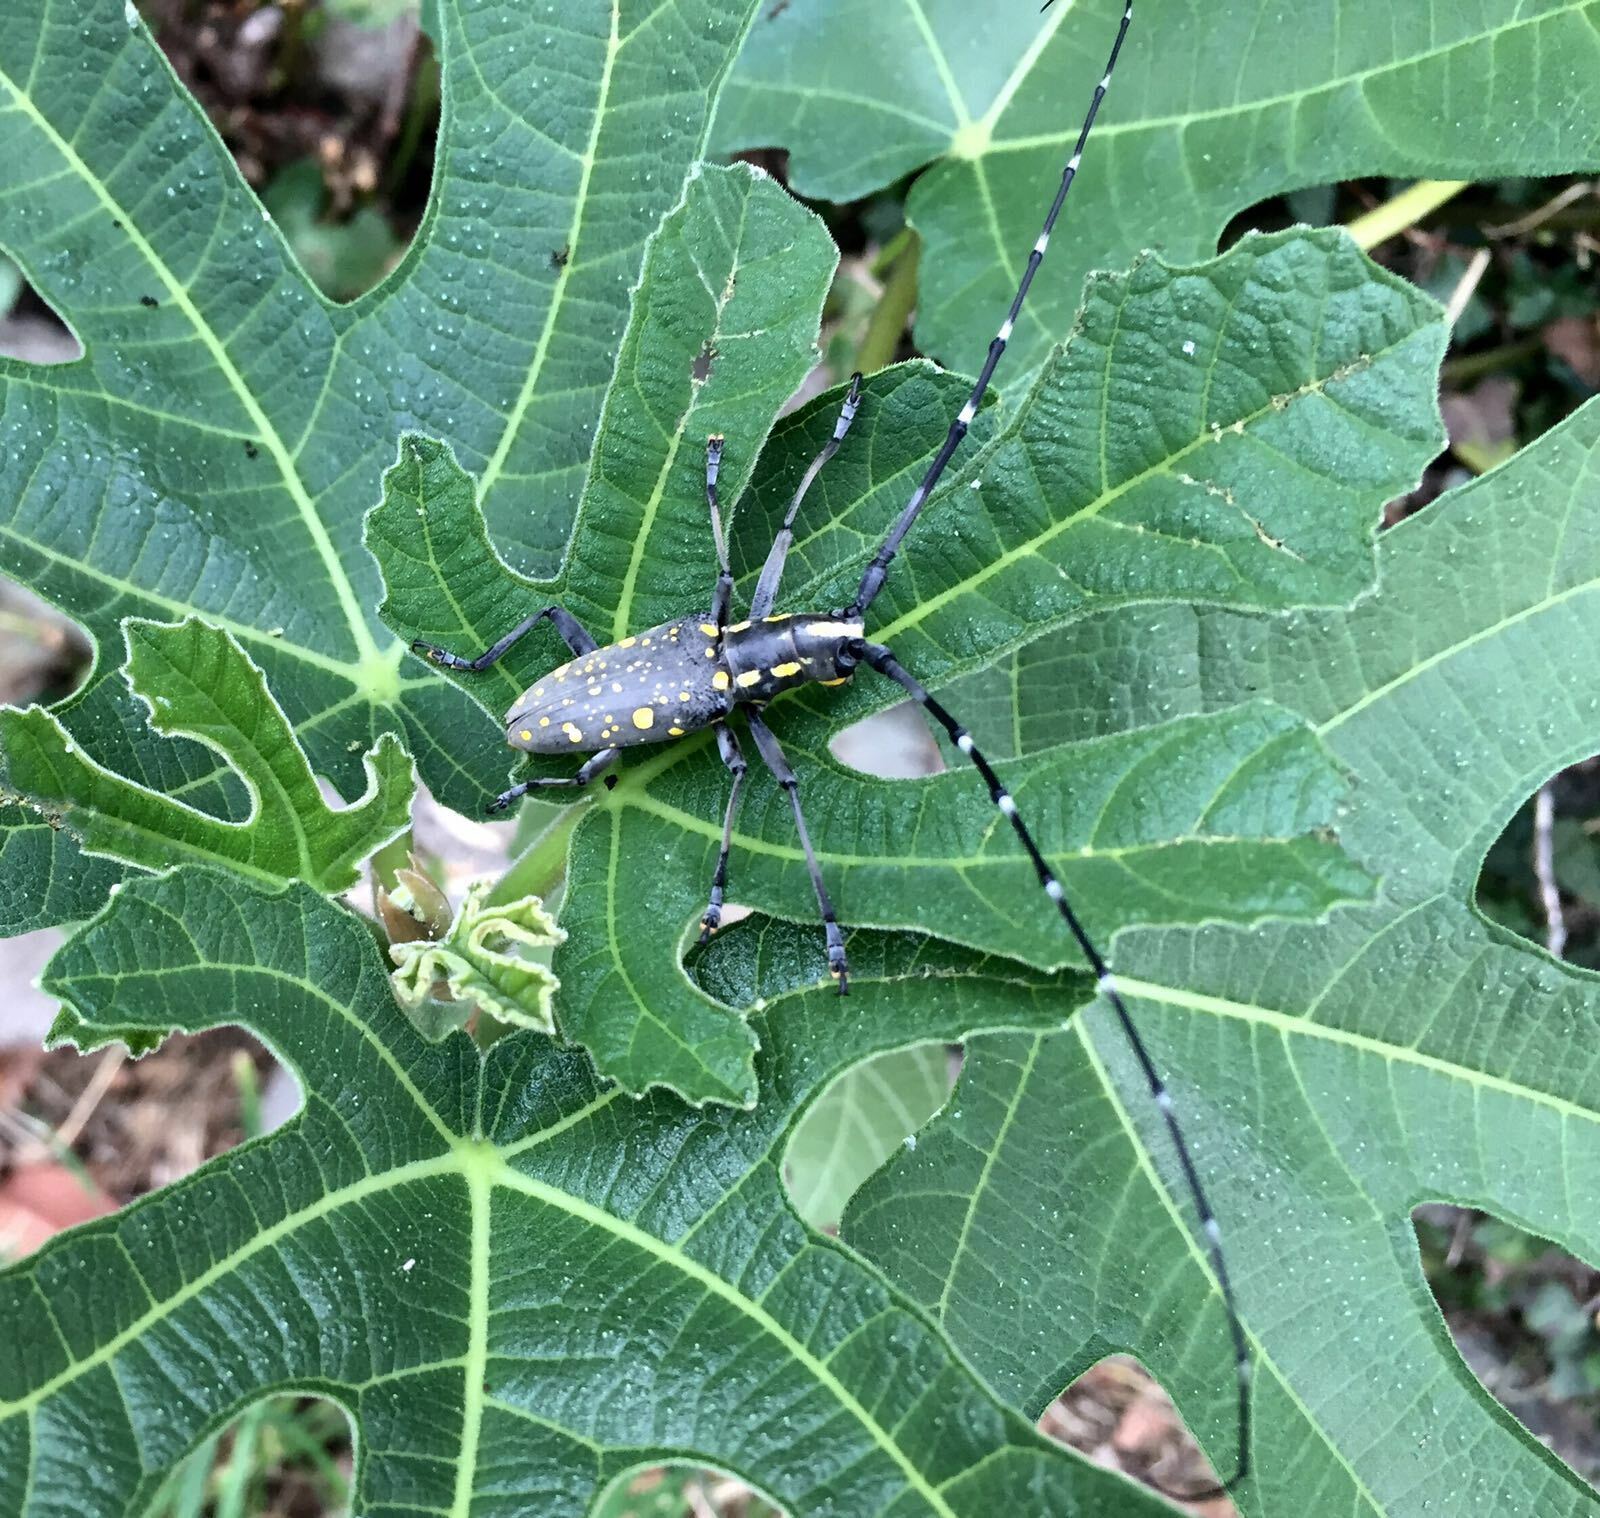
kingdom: Animalia
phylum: Arthropoda
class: Insecta
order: Coleoptera
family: Cerambycidae
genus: Psacothea
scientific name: Psacothea hilaris
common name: Yellow-spotted longicorn beetle
